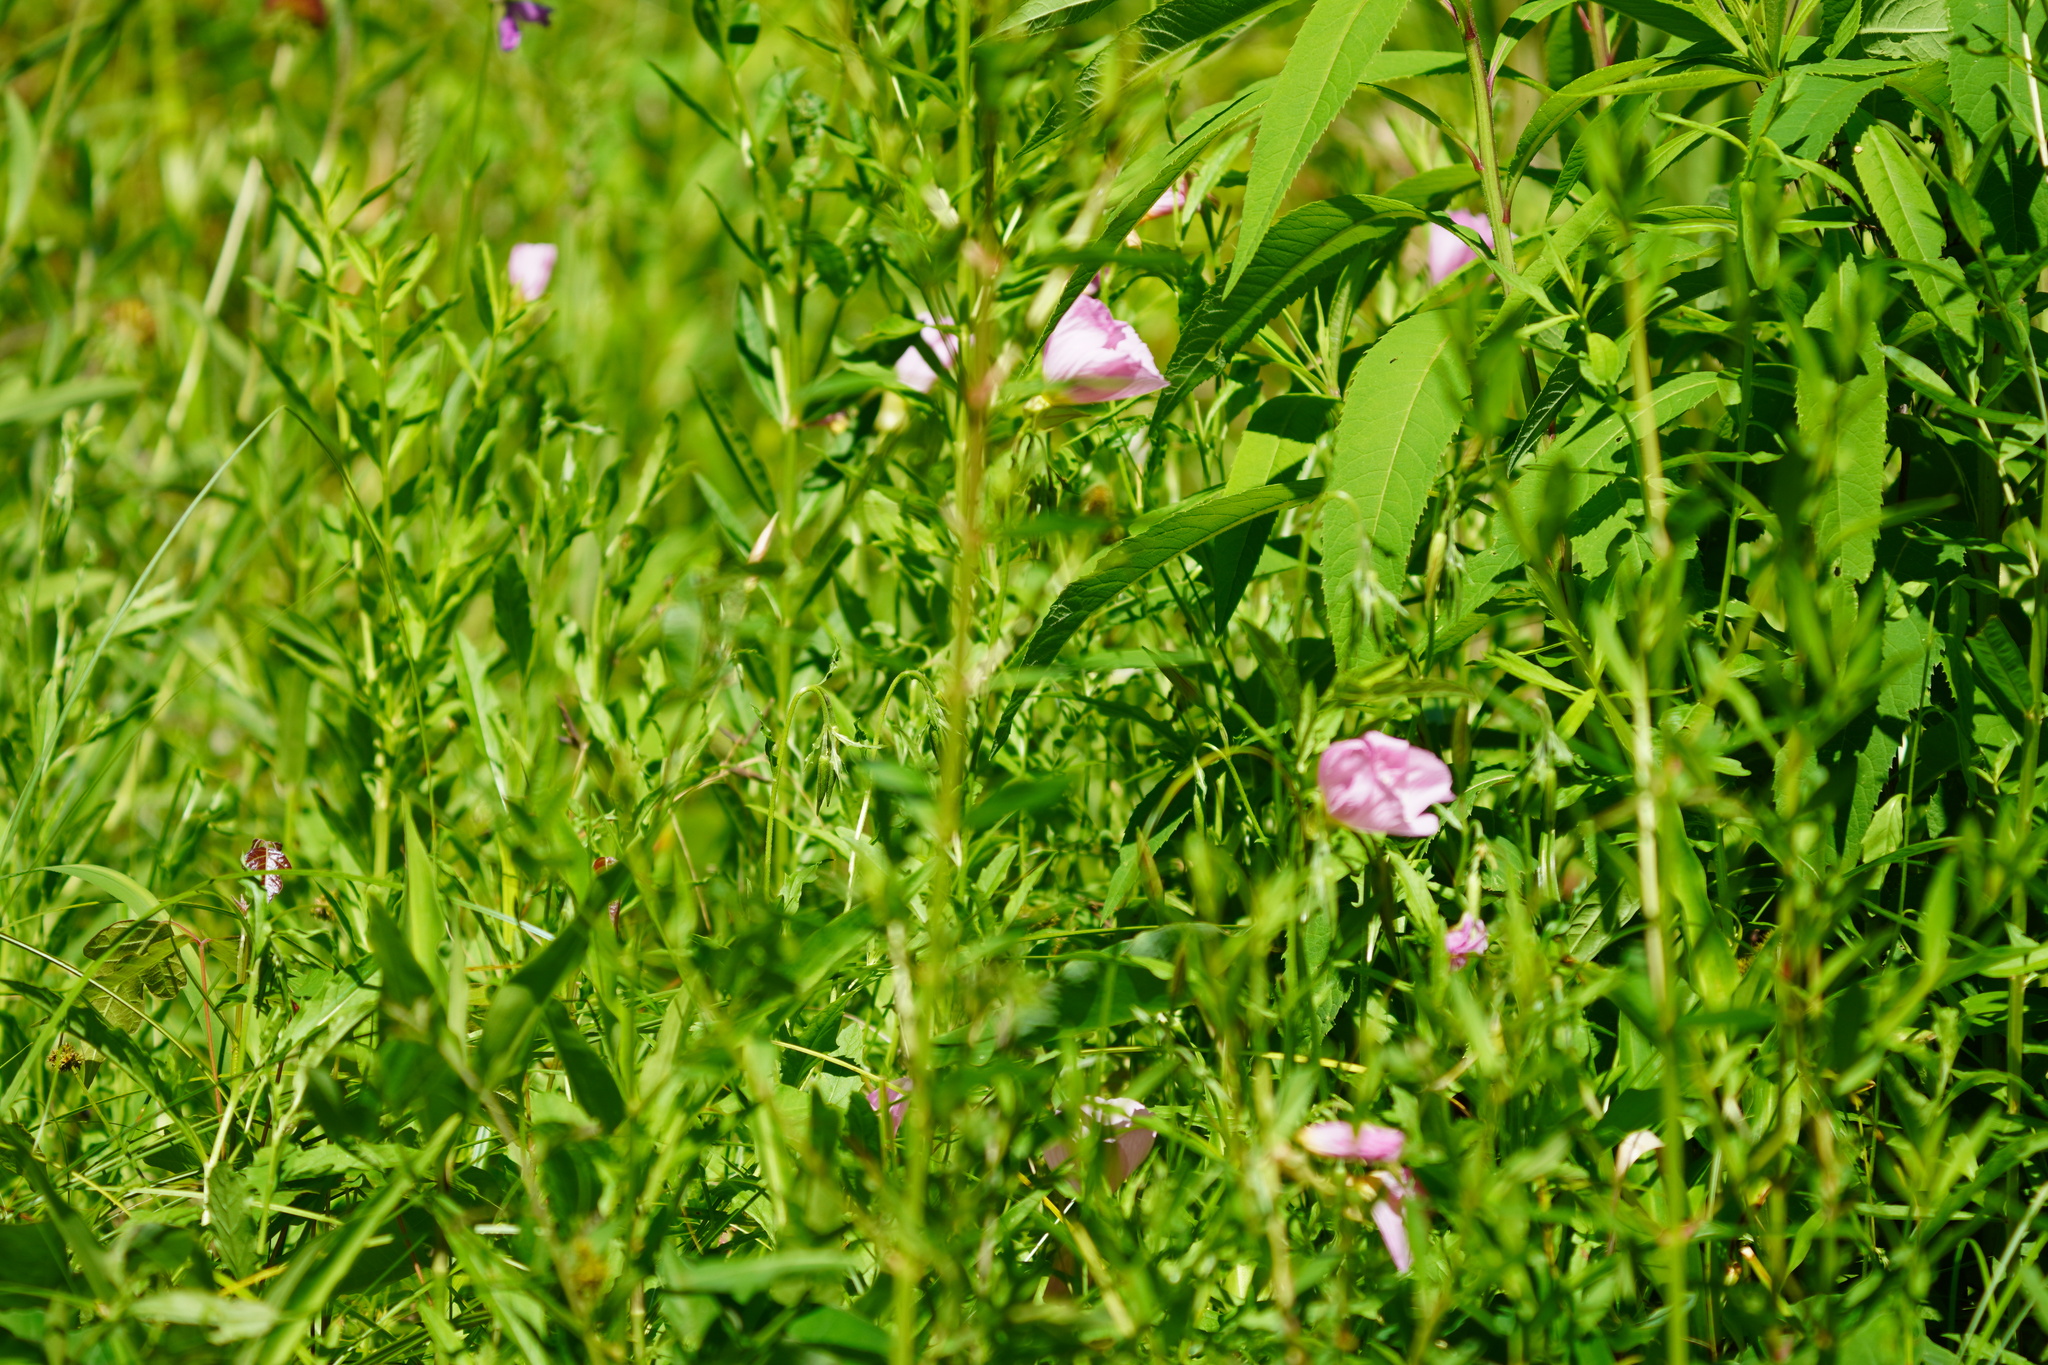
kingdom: Plantae
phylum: Tracheophyta
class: Magnoliopsida
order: Myrtales
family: Onagraceae
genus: Oenothera
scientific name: Oenothera speciosa
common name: White evening-primrose
